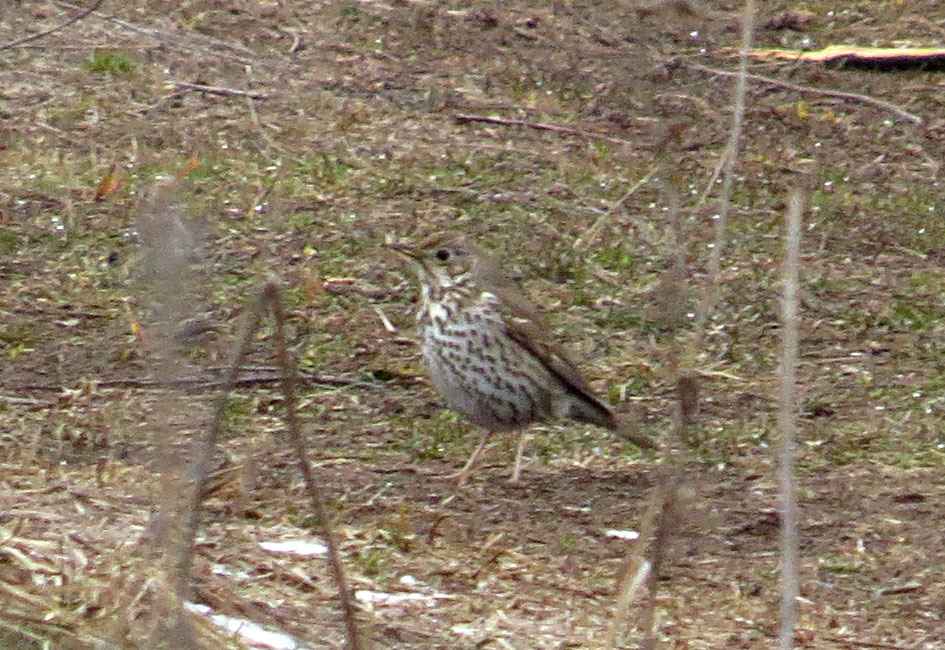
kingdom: Animalia
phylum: Chordata
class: Aves
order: Passeriformes
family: Turdidae
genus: Turdus
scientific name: Turdus philomelos
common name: Song thrush
